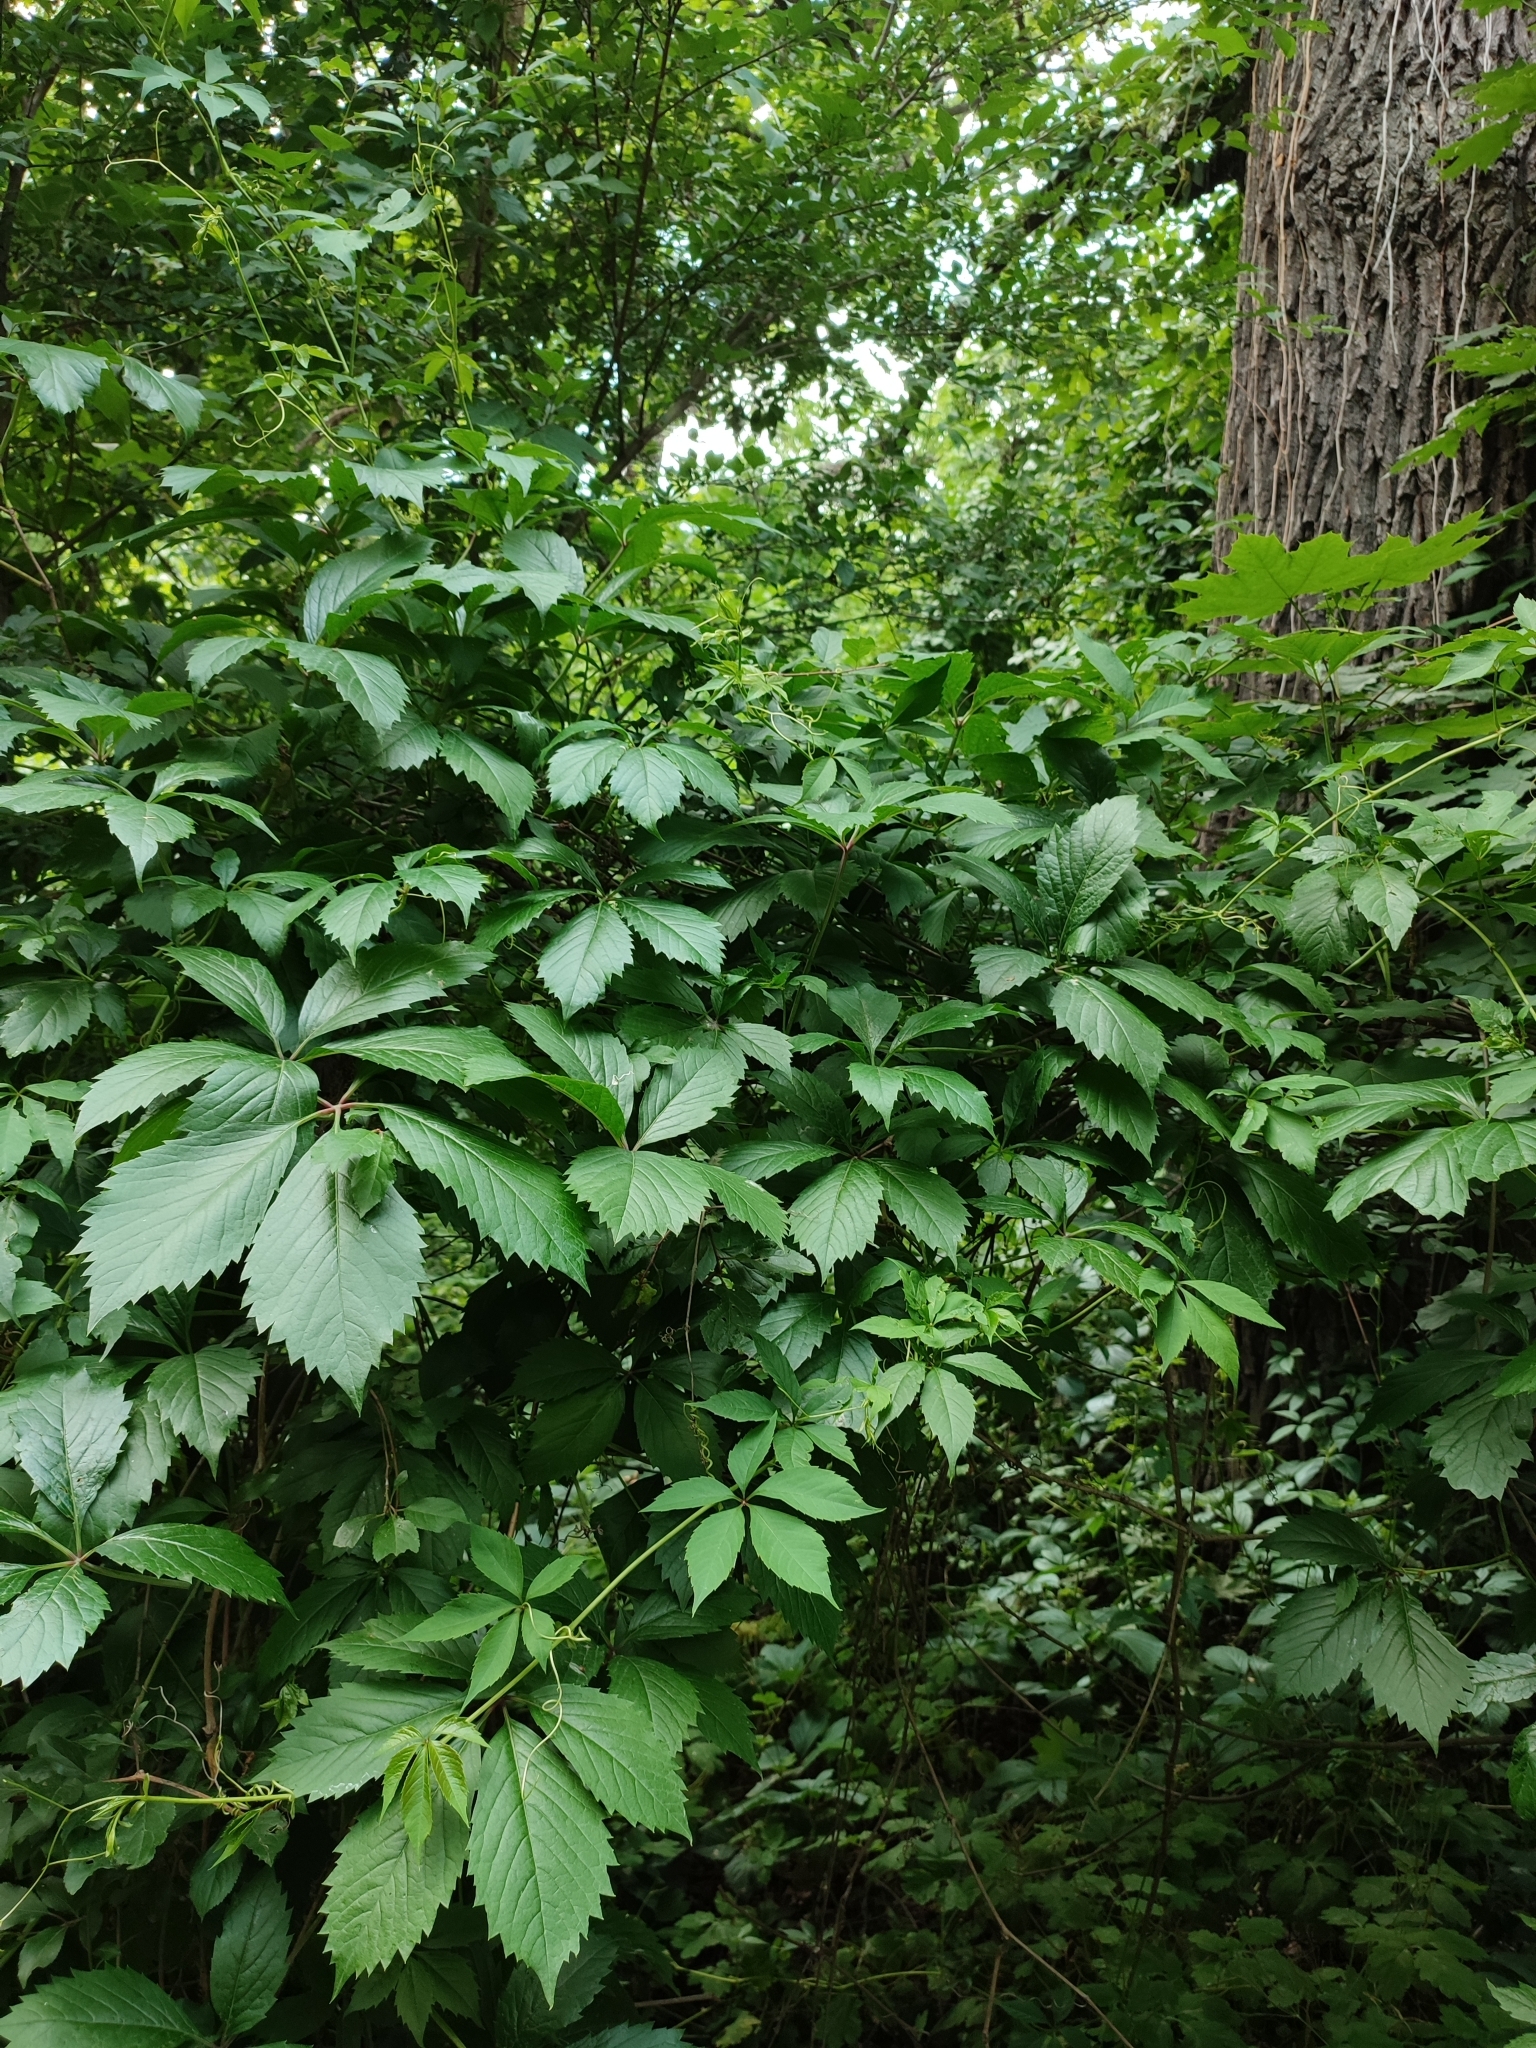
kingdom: Plantae
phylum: Tracheophyta
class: Magnoliopsida
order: Vitales
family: Vitaceae
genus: Parthenocissus
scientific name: Parthenocissus inserta
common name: False virginia-creeper
